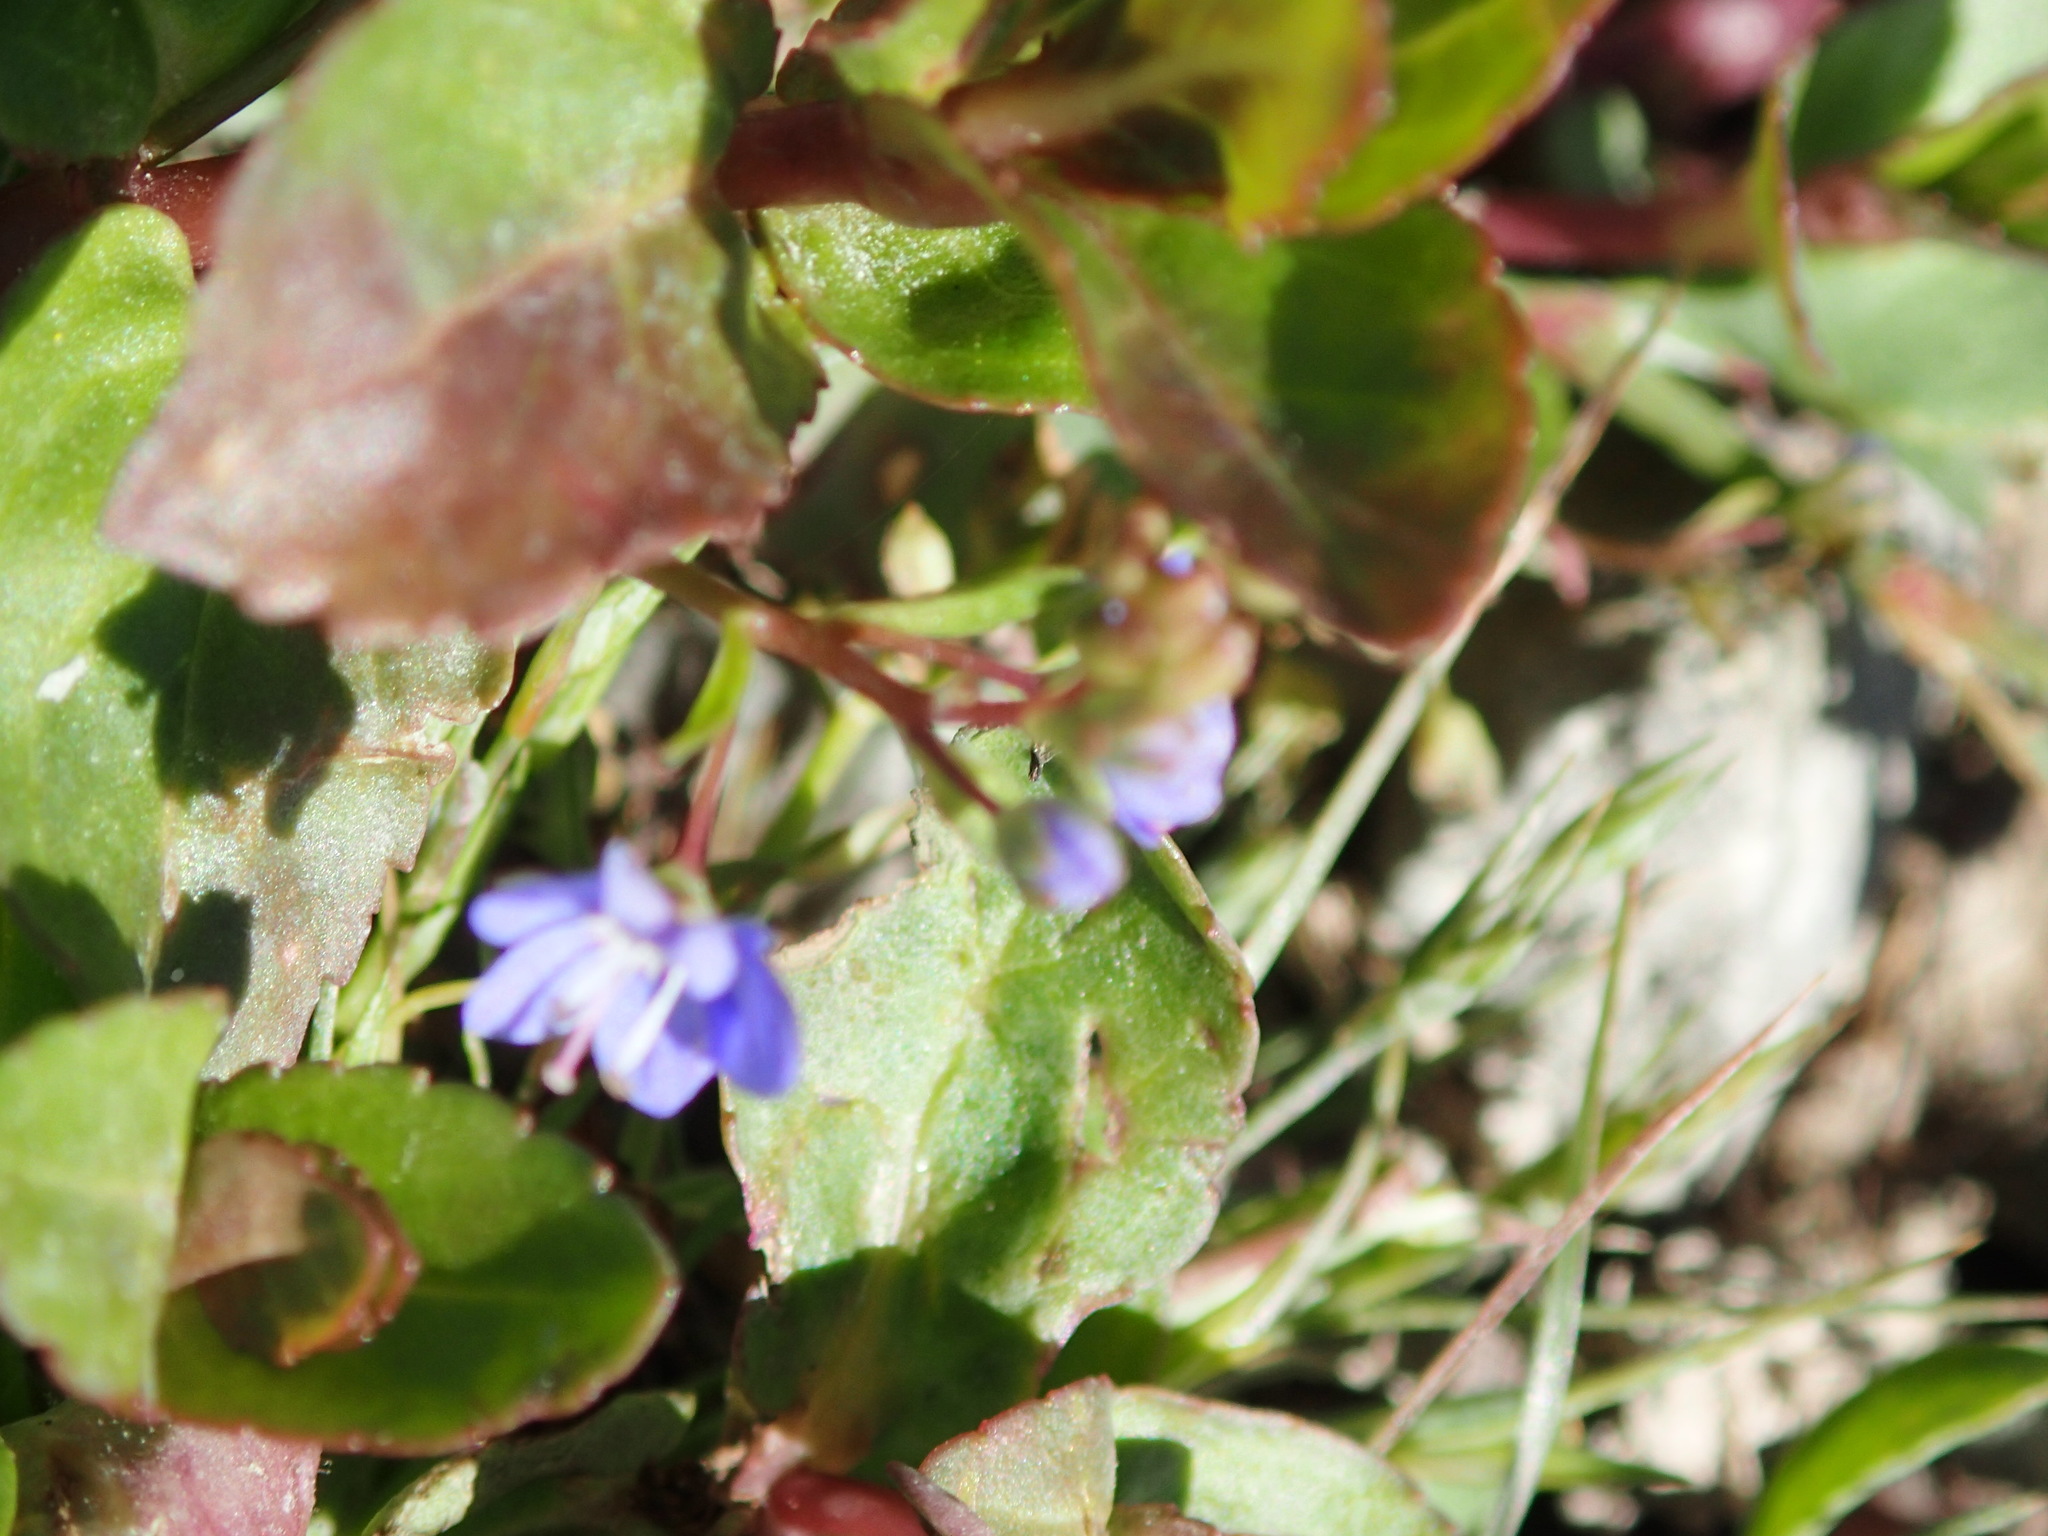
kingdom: Plantae
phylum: Tracheophyta
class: Magnoliopsida
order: Lamiales
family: Plantaginaceae
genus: Veronica
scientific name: Veronica americana
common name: American brooklime
